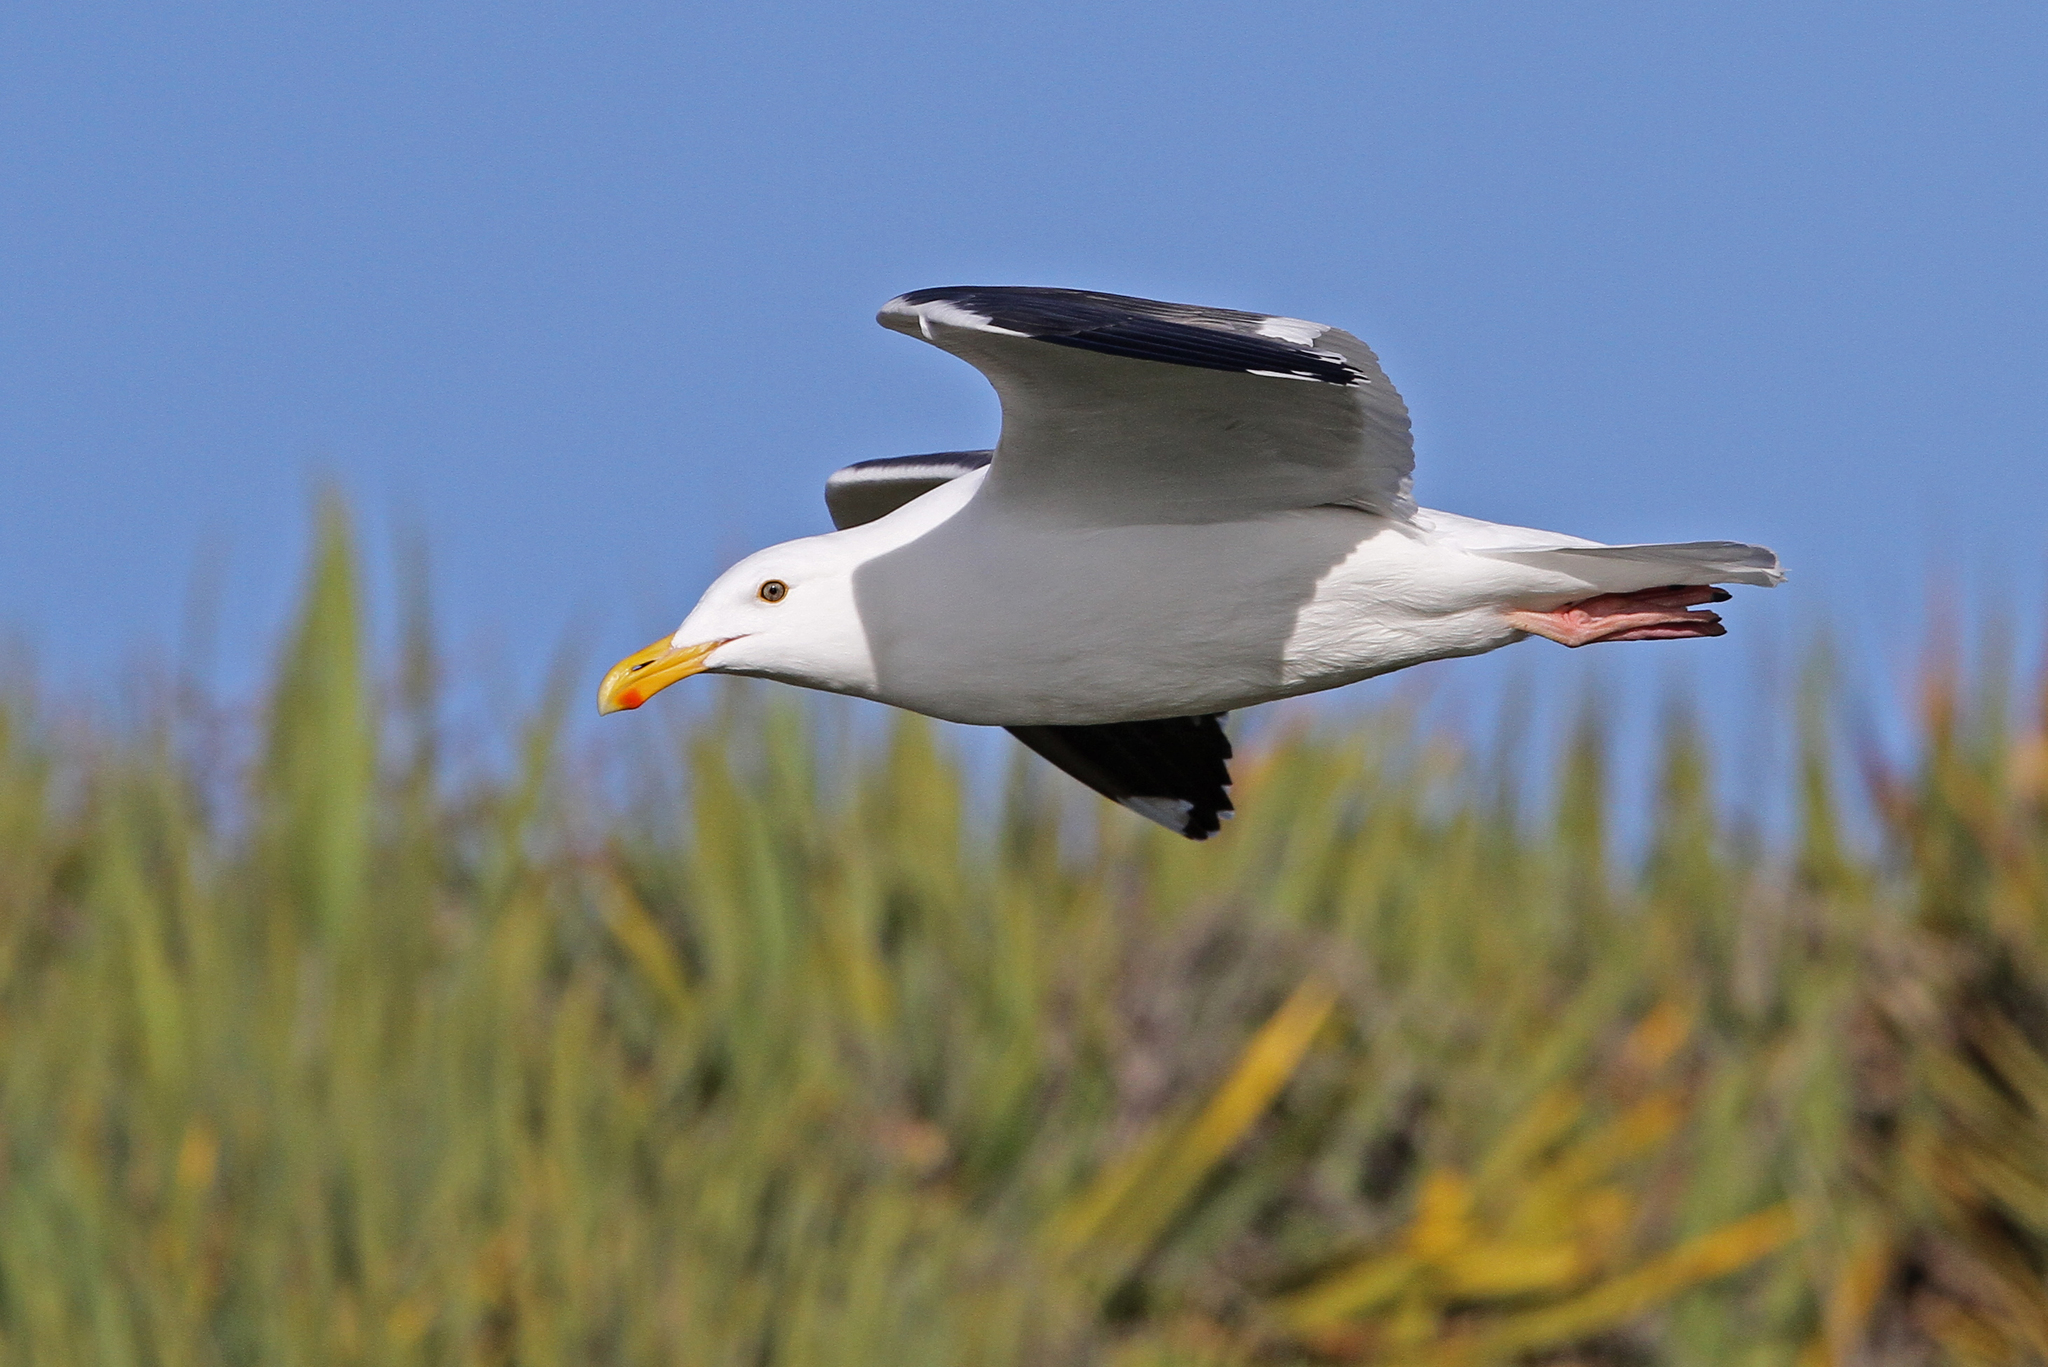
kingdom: Animalia
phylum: Chordata
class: Aves
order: Charadriiformes
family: Laridae
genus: Larus
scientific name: Larus occidentalis
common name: Western gull
